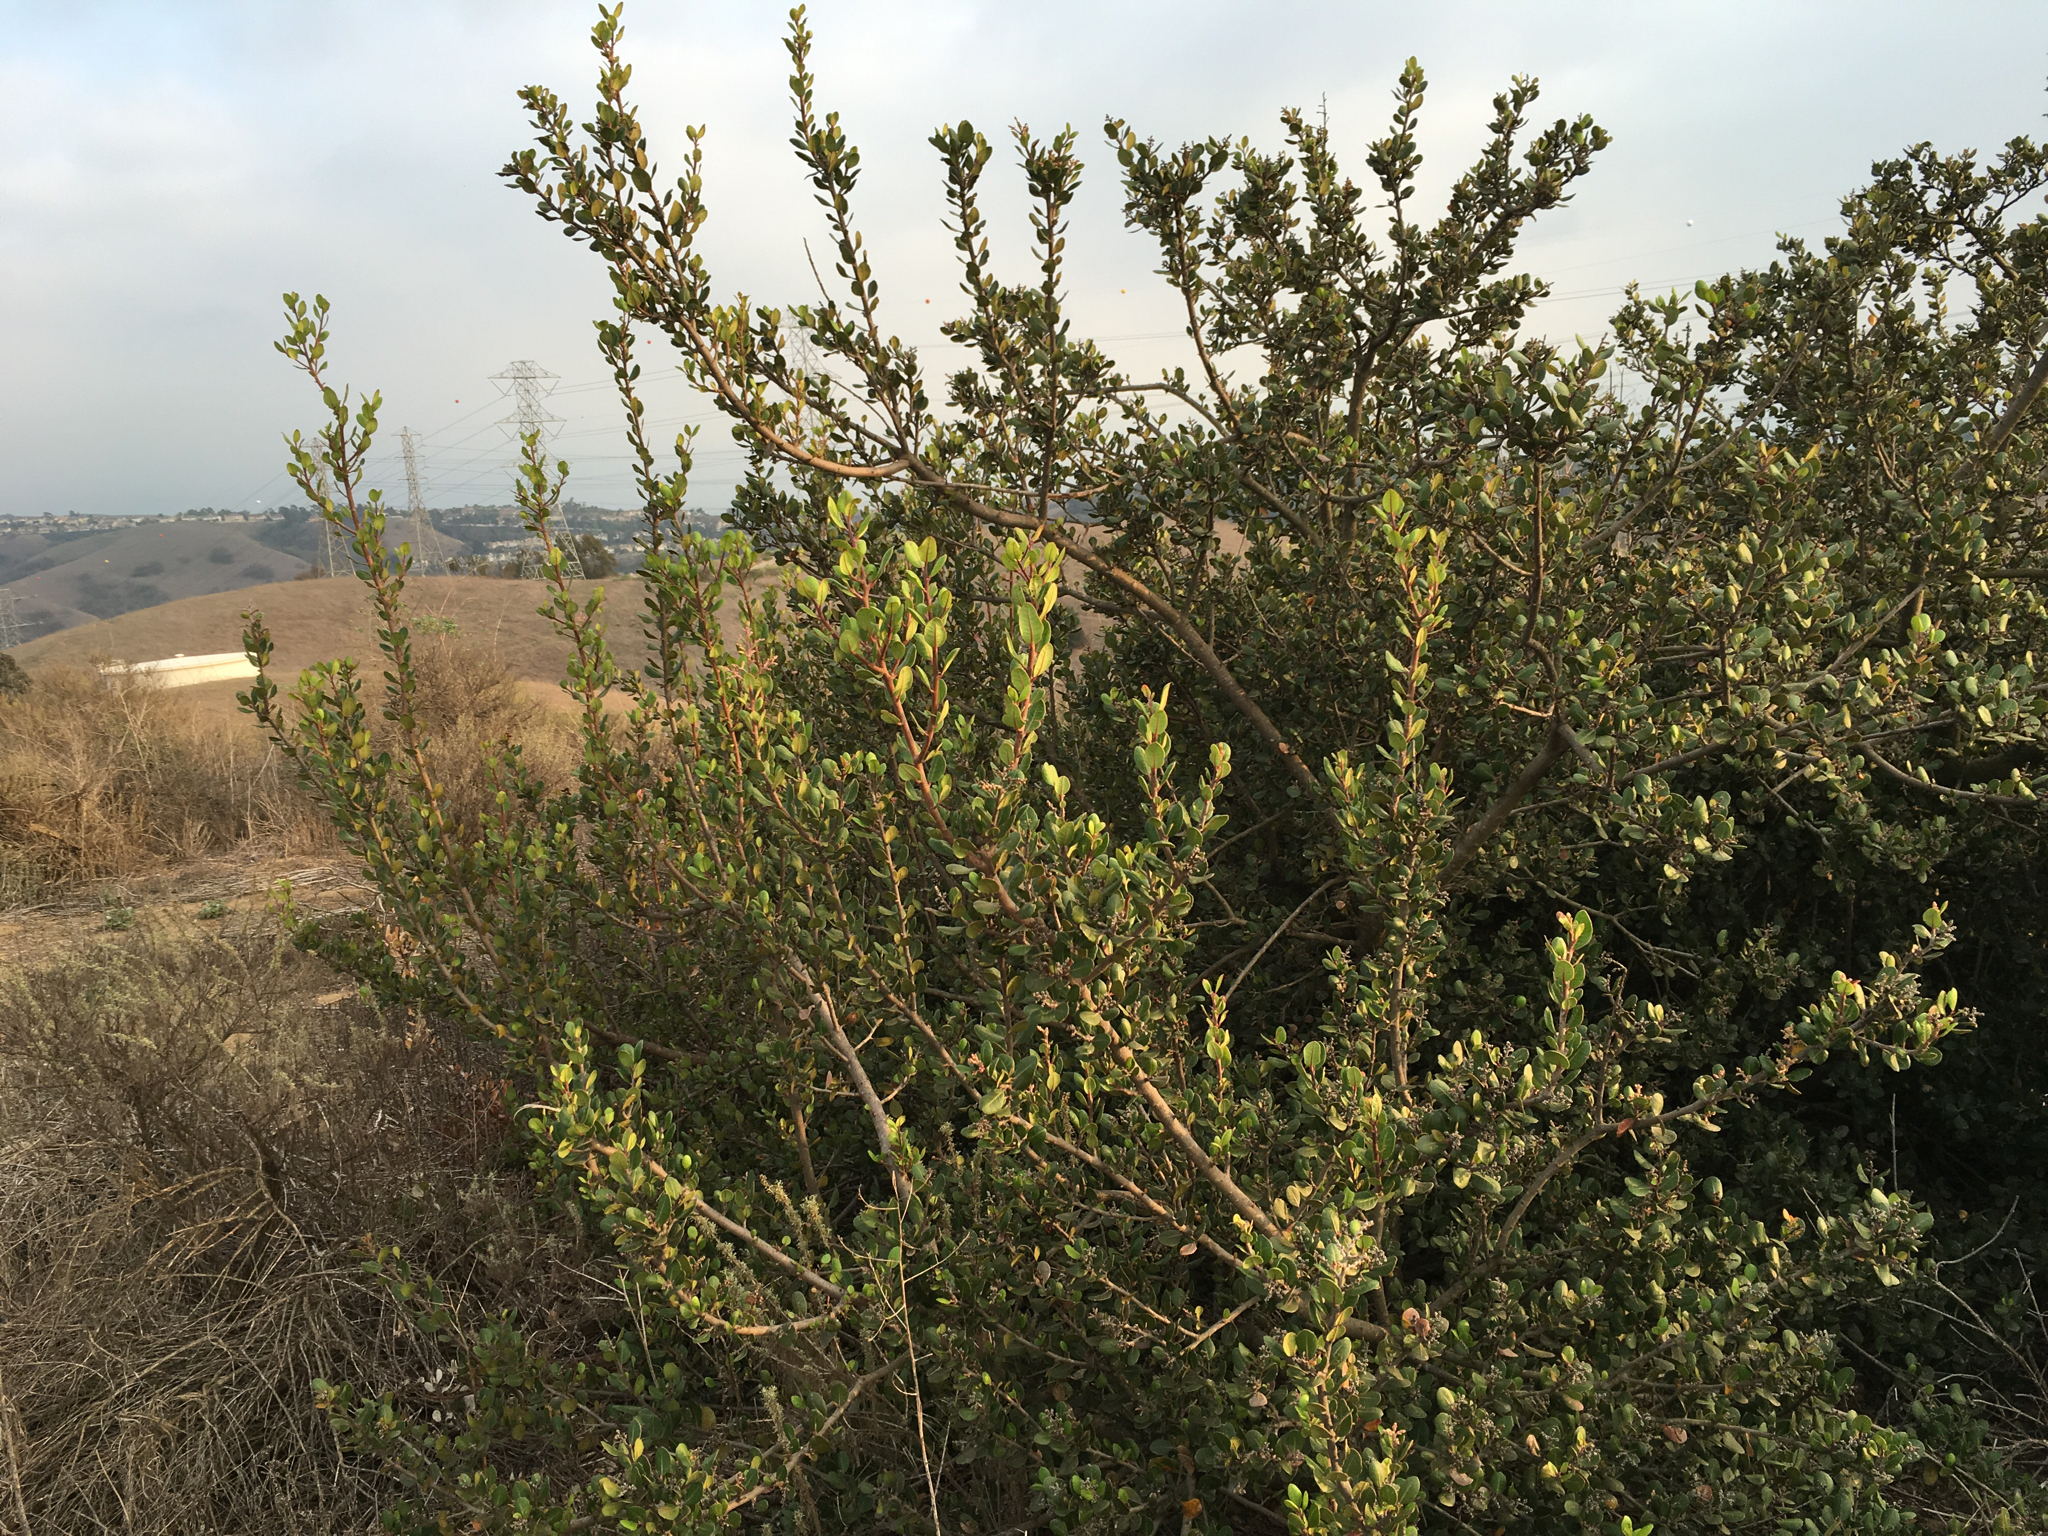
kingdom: Plantae
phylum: Tracheophyta
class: Magnoliopsida
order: Sapindales
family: Anacardiaceae
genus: Rhus
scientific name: Rhus integrifolia
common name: Lemonade sumac
